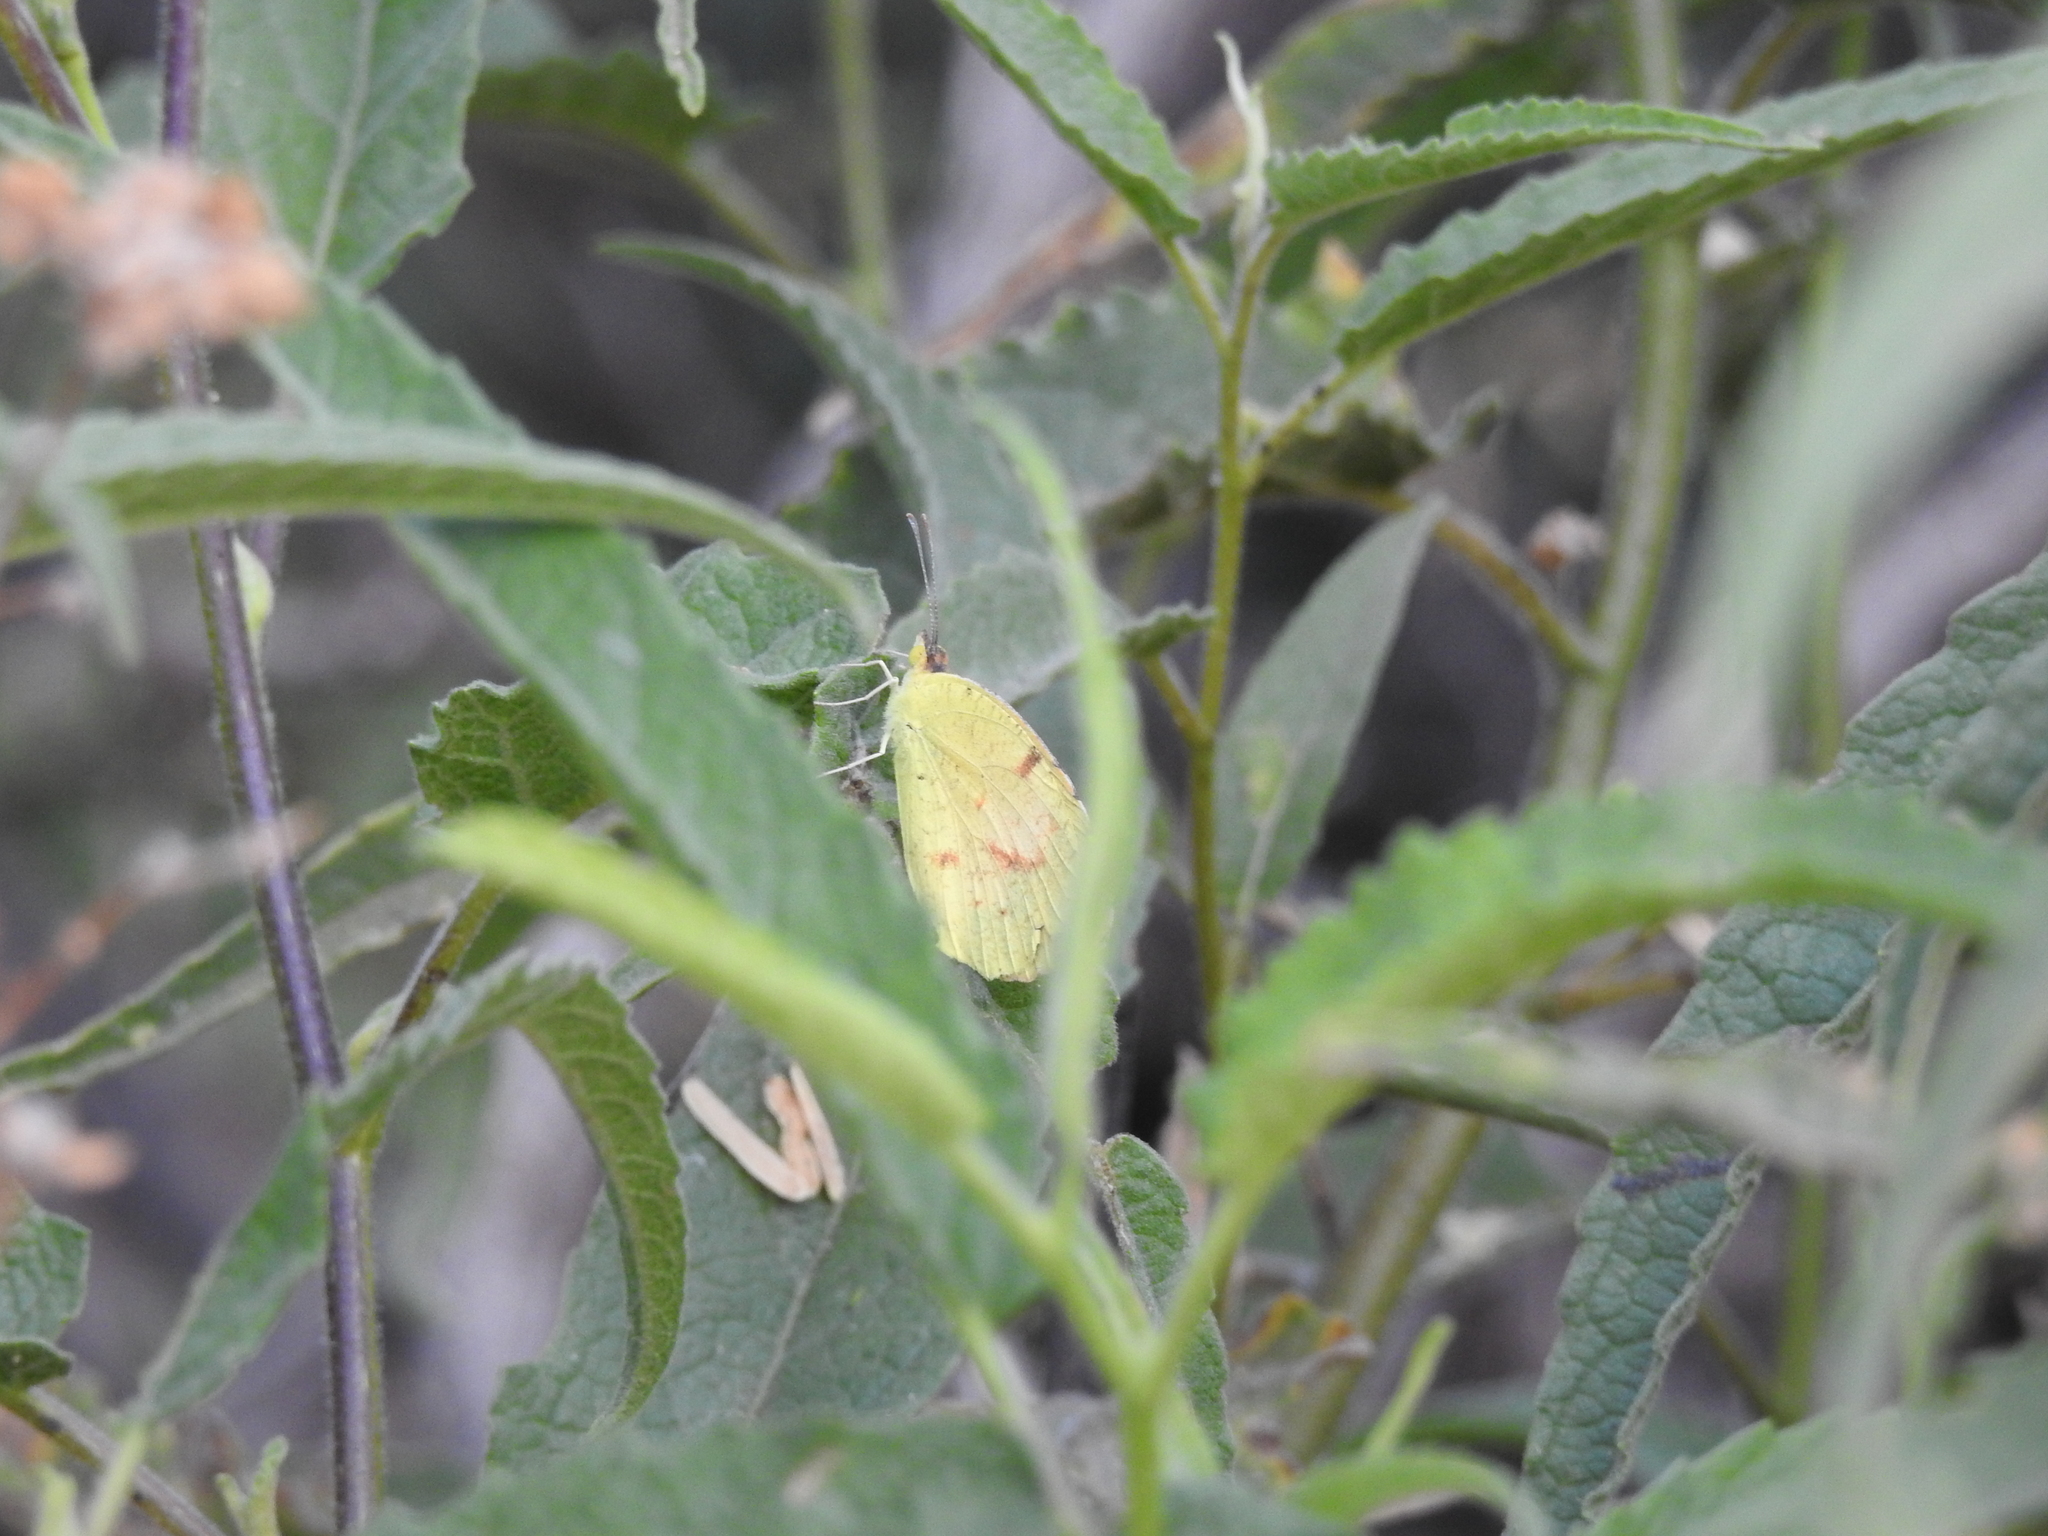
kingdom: Animalia
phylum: Arthropoda
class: Insecta
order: Lepidoptera
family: Pieridae
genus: Abaeis
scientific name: Abaeis nicippe
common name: Sleepy orange
